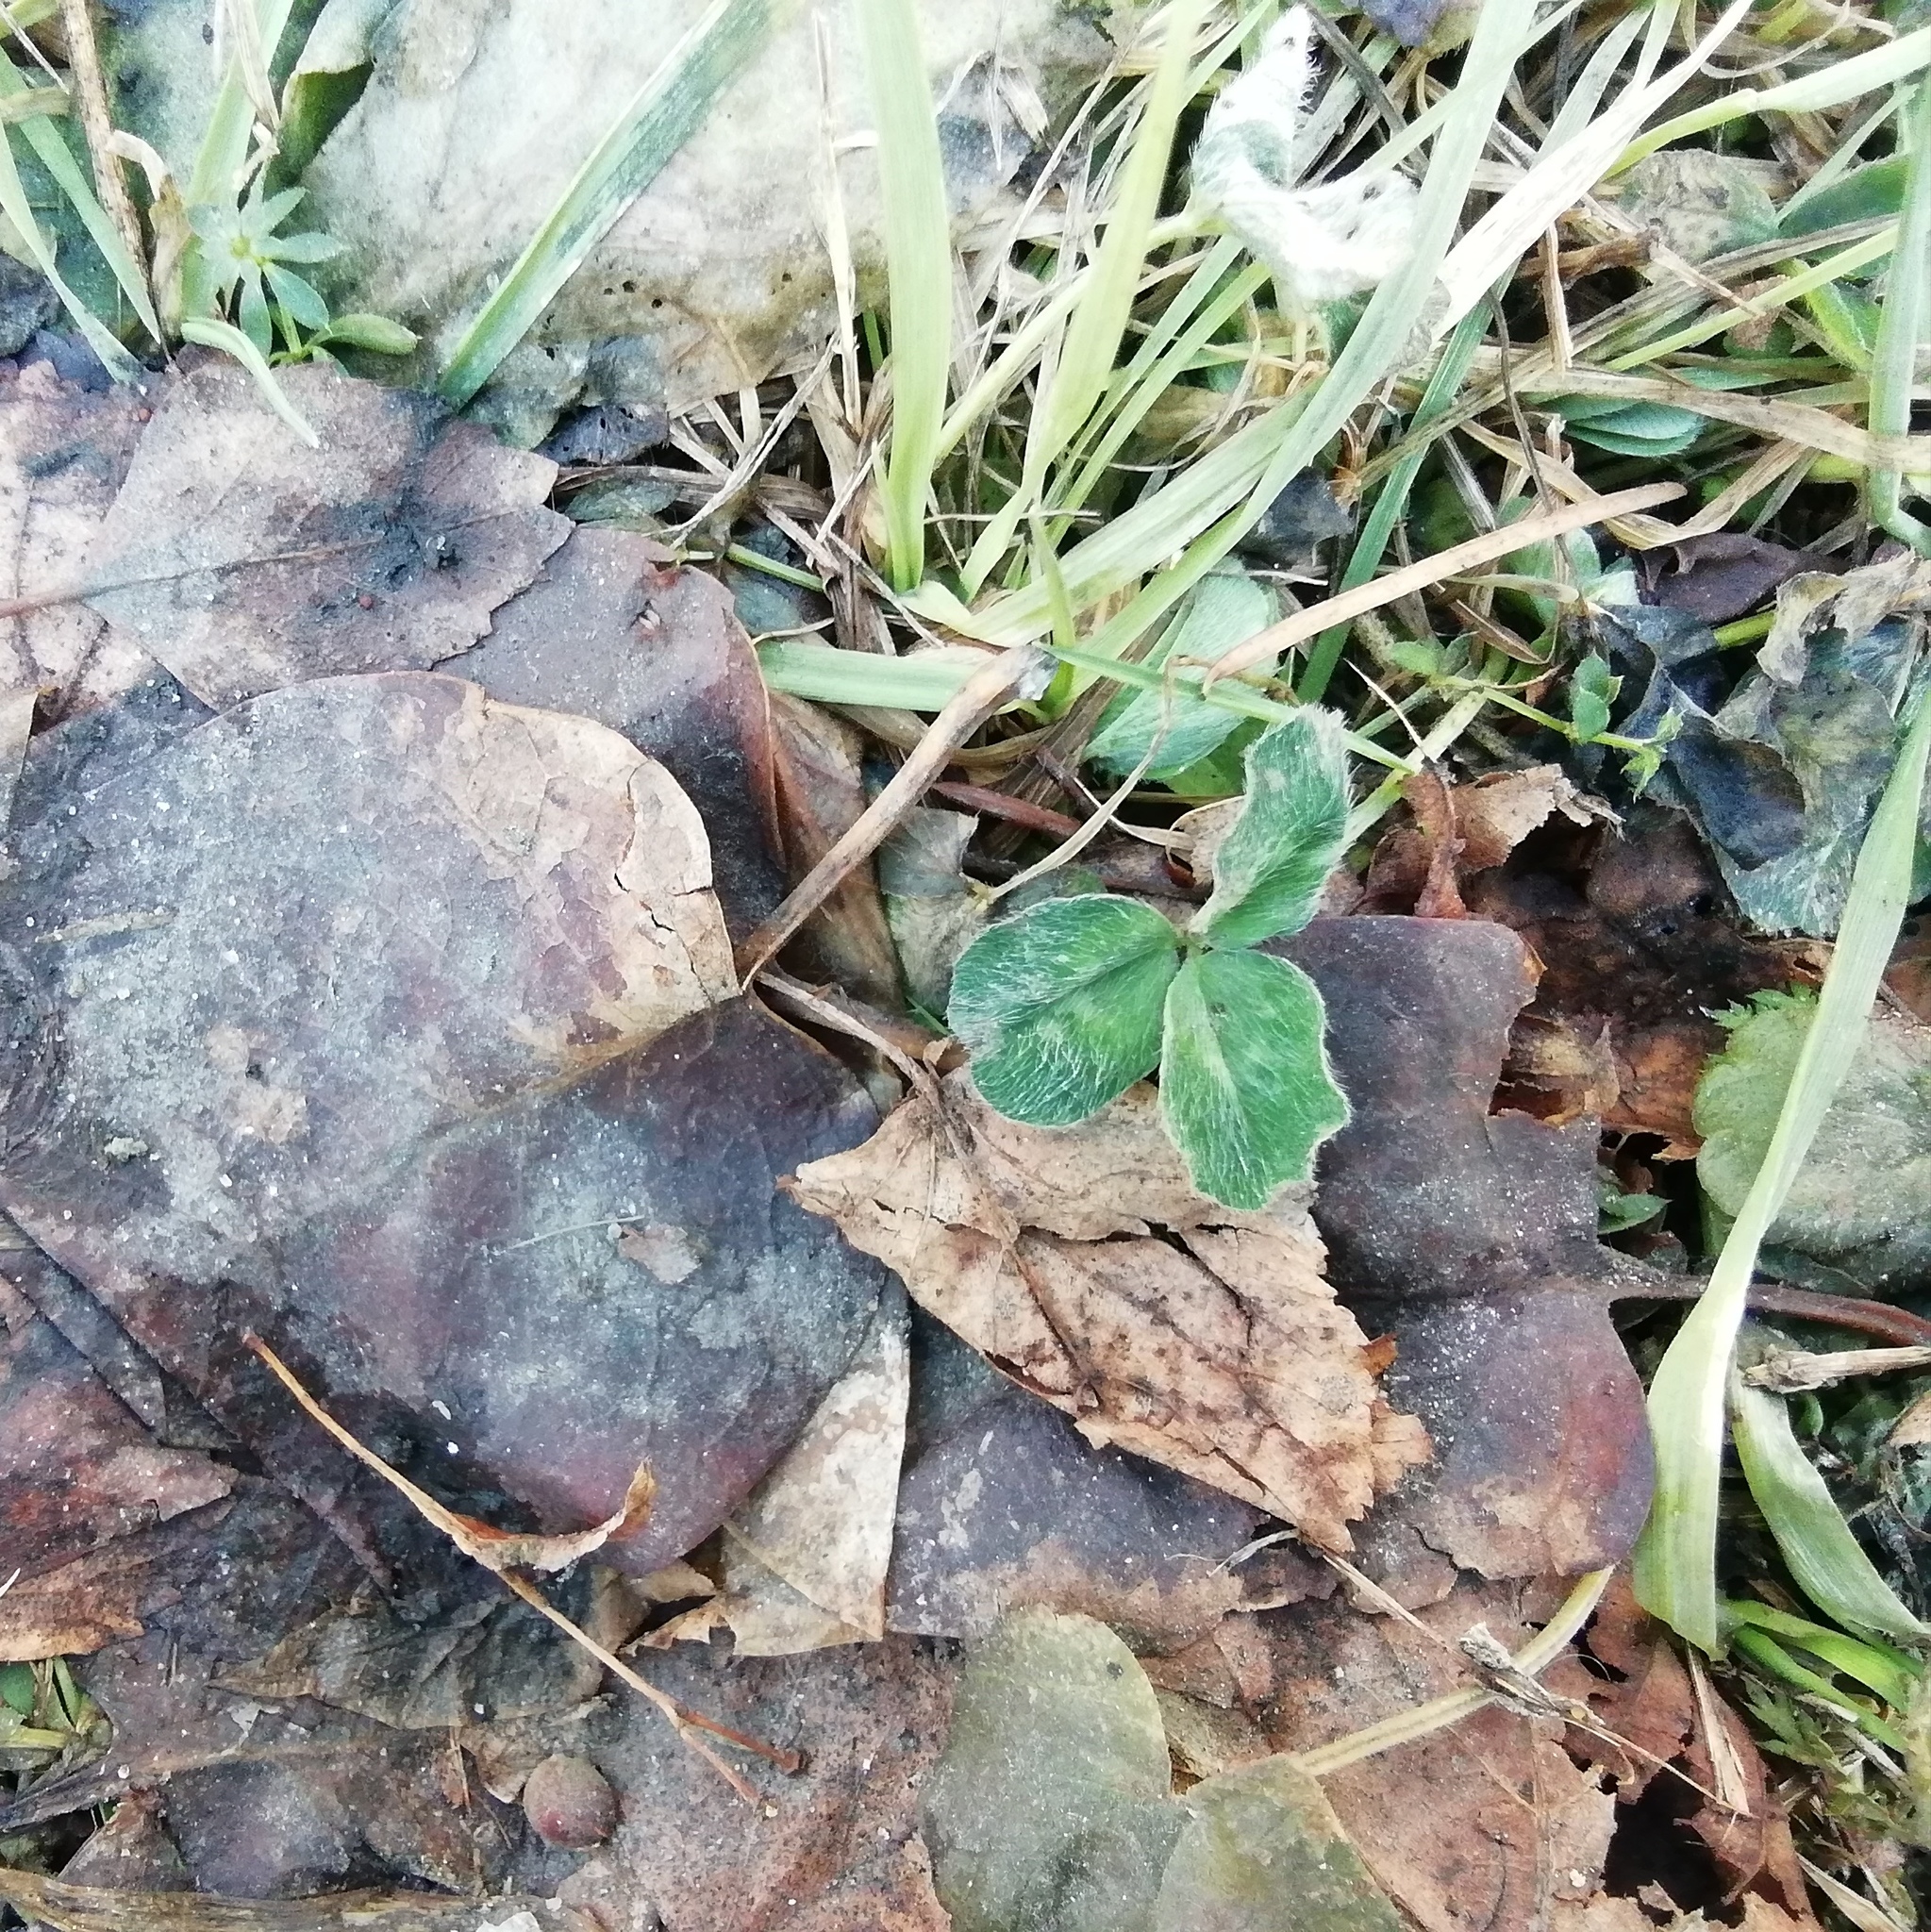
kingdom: Plantae
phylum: Tracheophyta
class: Magnoliopsida
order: Fabales
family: Fabaceae
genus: Trifolium
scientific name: Trifolium pratense
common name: Red clover
